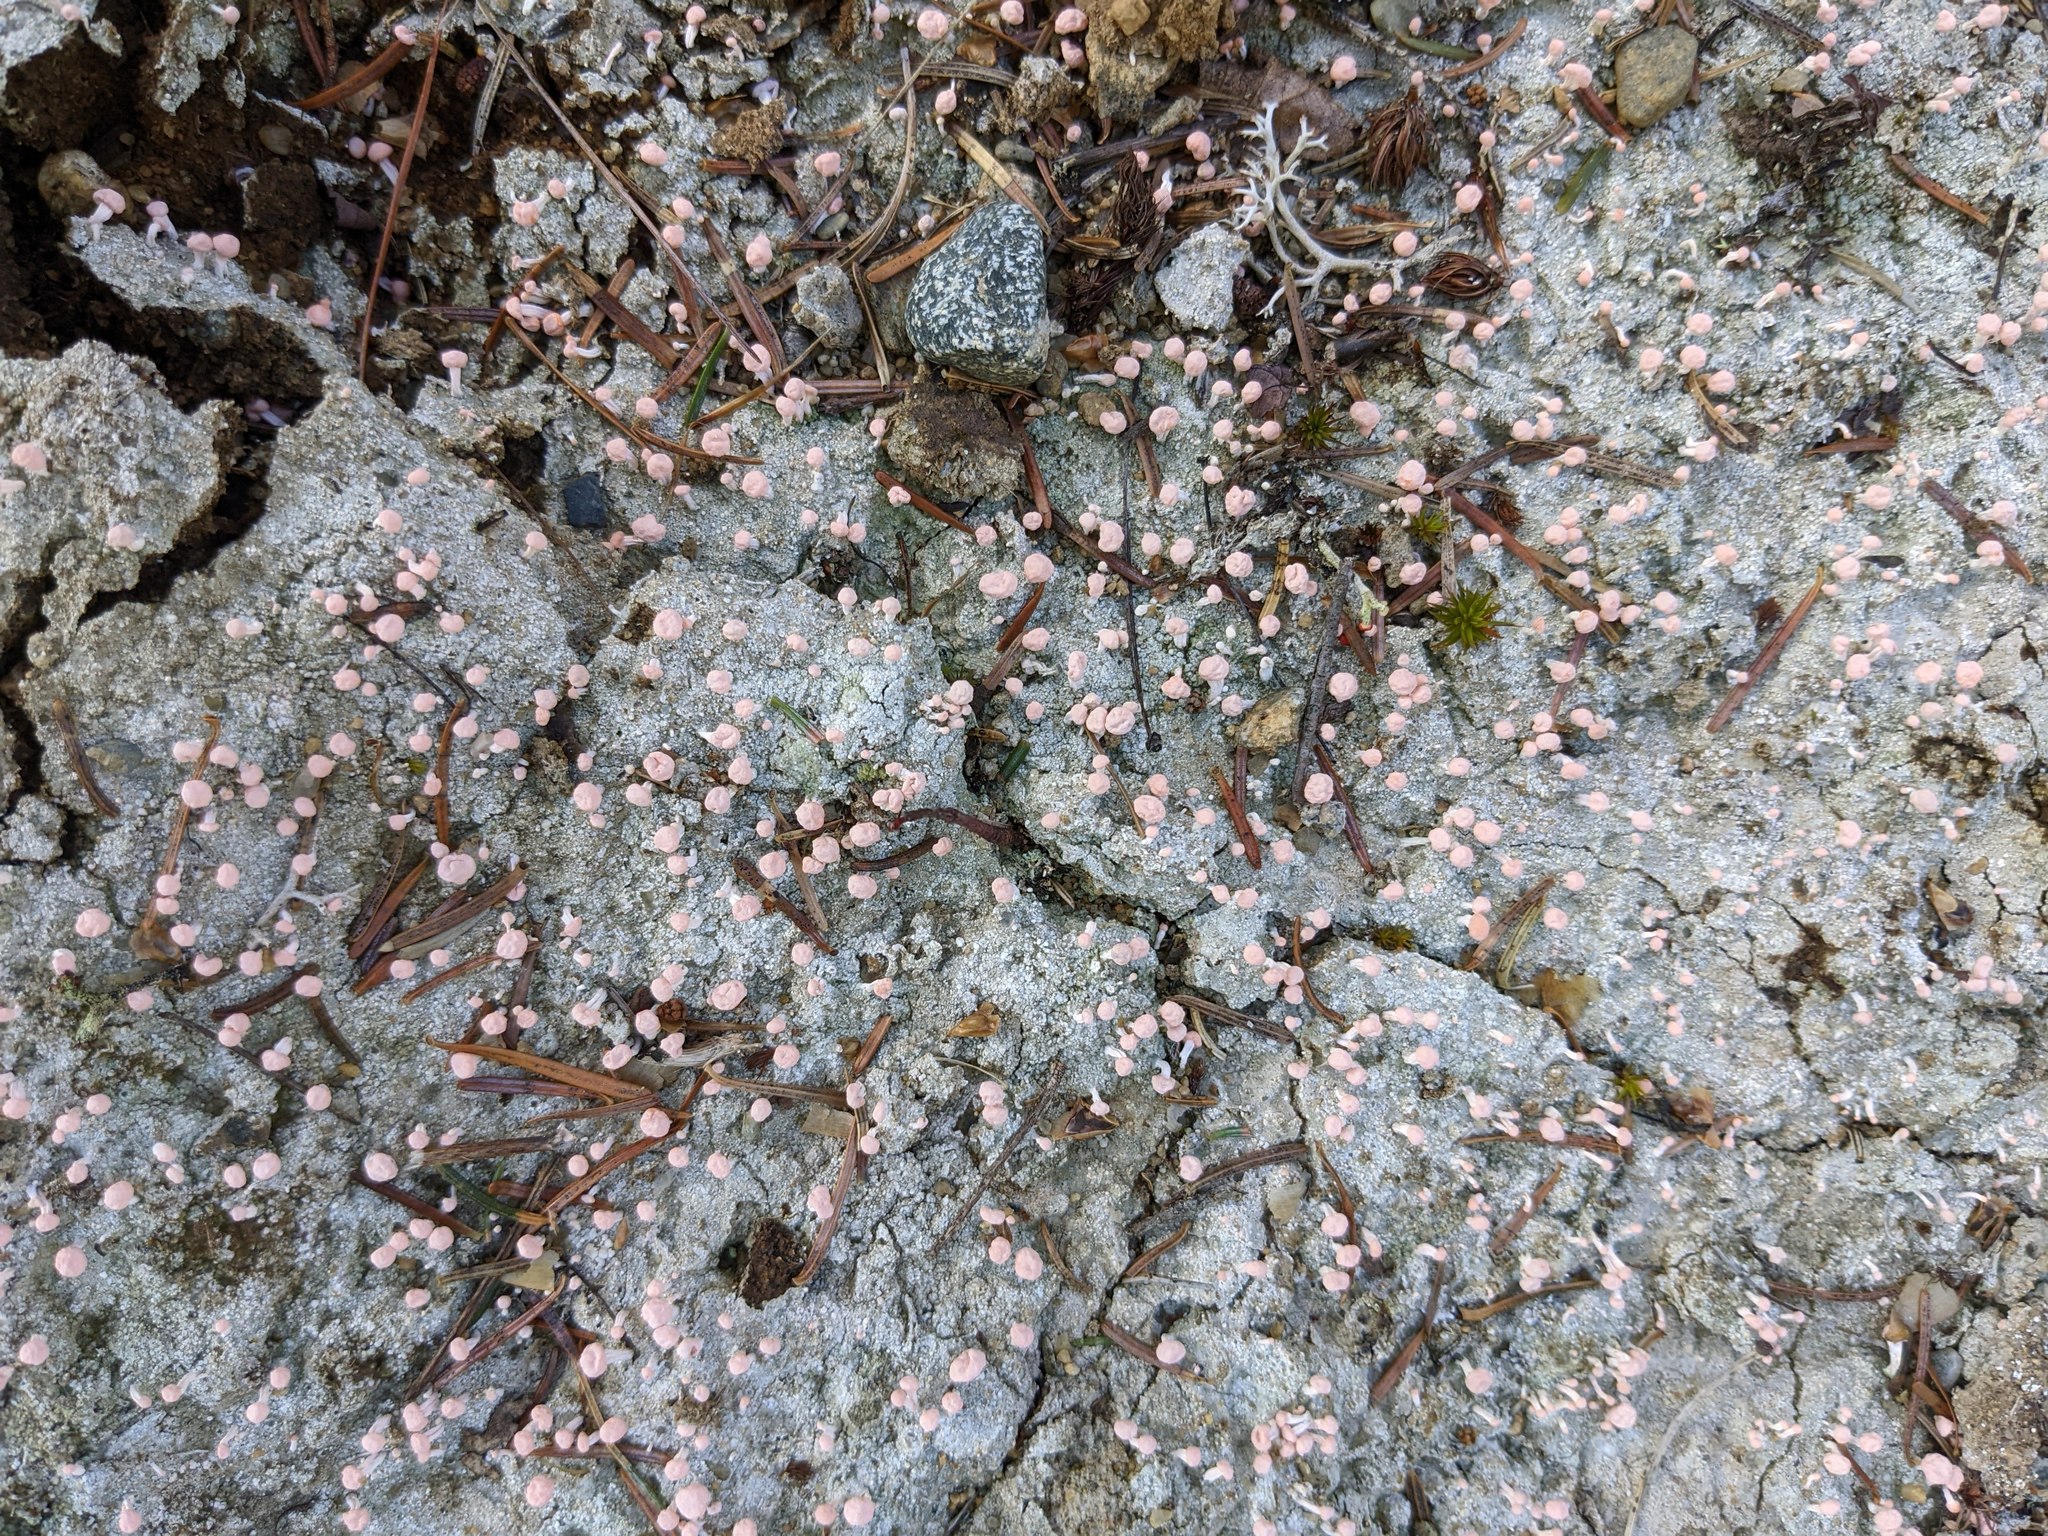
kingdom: Fungi
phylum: Ascomycota
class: Lecanoromycetes
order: Pertusariales
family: Icmadophilaceae
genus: Dibaeis
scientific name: Dibaeis baeomyces
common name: Pink earth lichen
